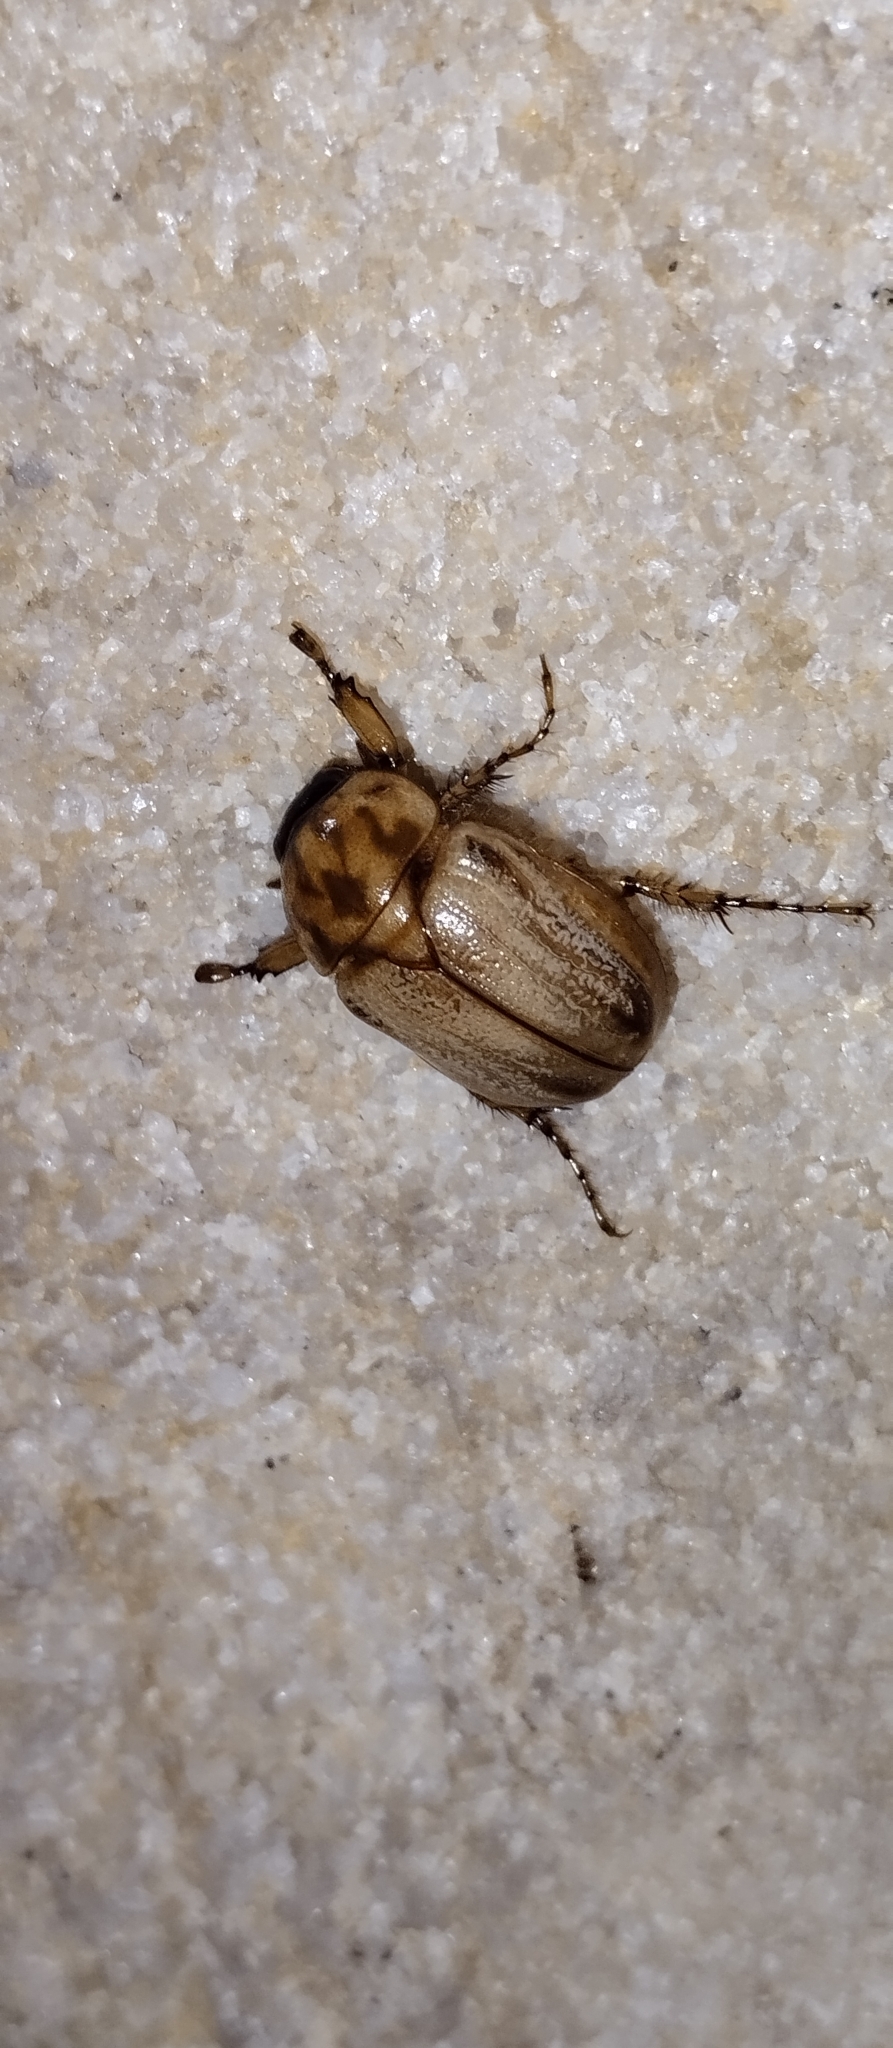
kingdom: Animalia
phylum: Arthropoda
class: Insecta
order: Coleoptera
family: Scarabaeidae
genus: Cyclocephala
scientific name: Cyclocephala signaticollis
